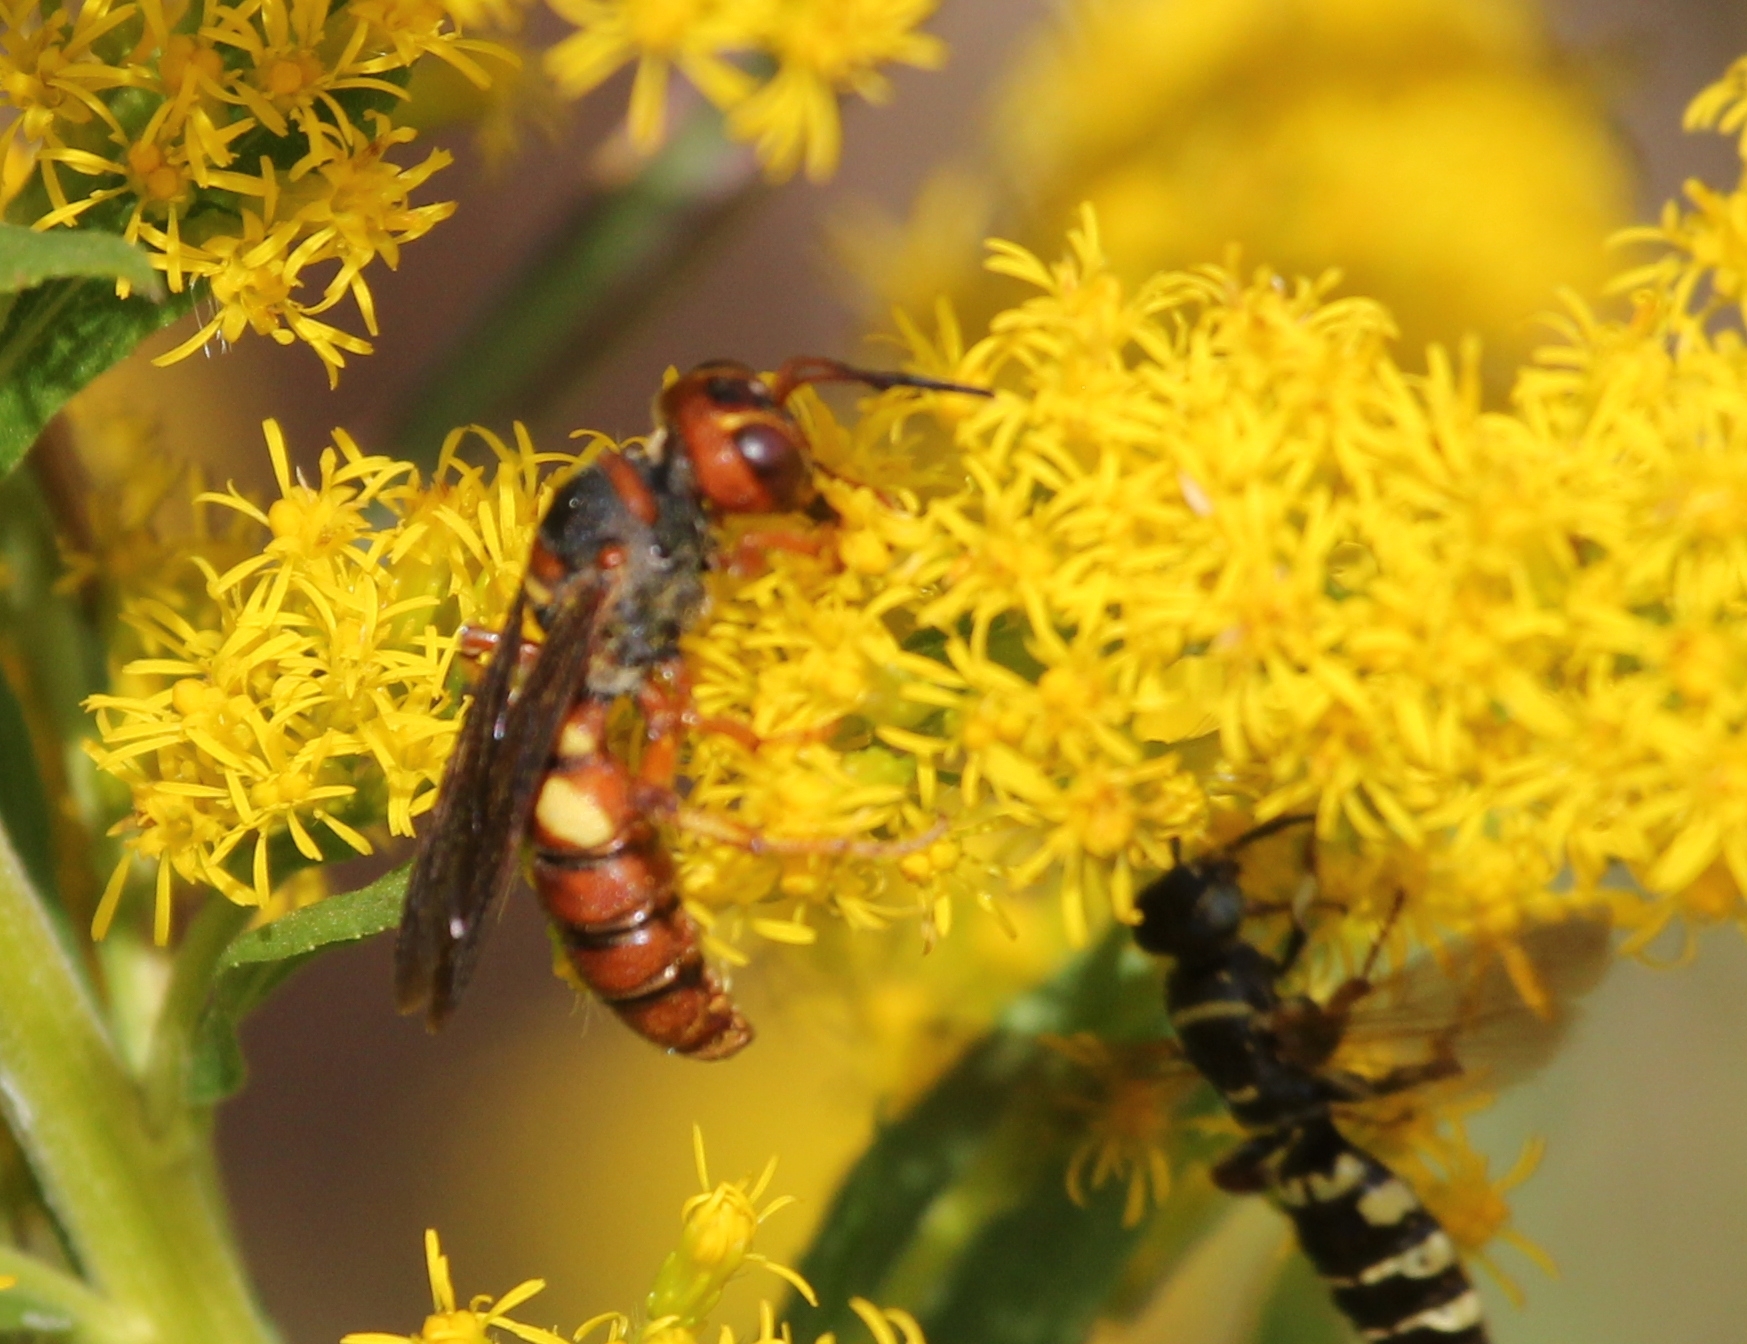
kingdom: Animalia
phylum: Arthropoda
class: Insecta
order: Hymenoptera
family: Crabronidae
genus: Cerceris
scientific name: Cerceris bicornuta
